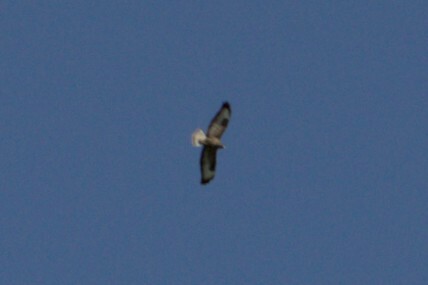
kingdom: Animalia
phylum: Chordata
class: Aves
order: Accipitriformes
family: Accipitridae
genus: Buteo
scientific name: Buteo buteo
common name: Common buzzard
